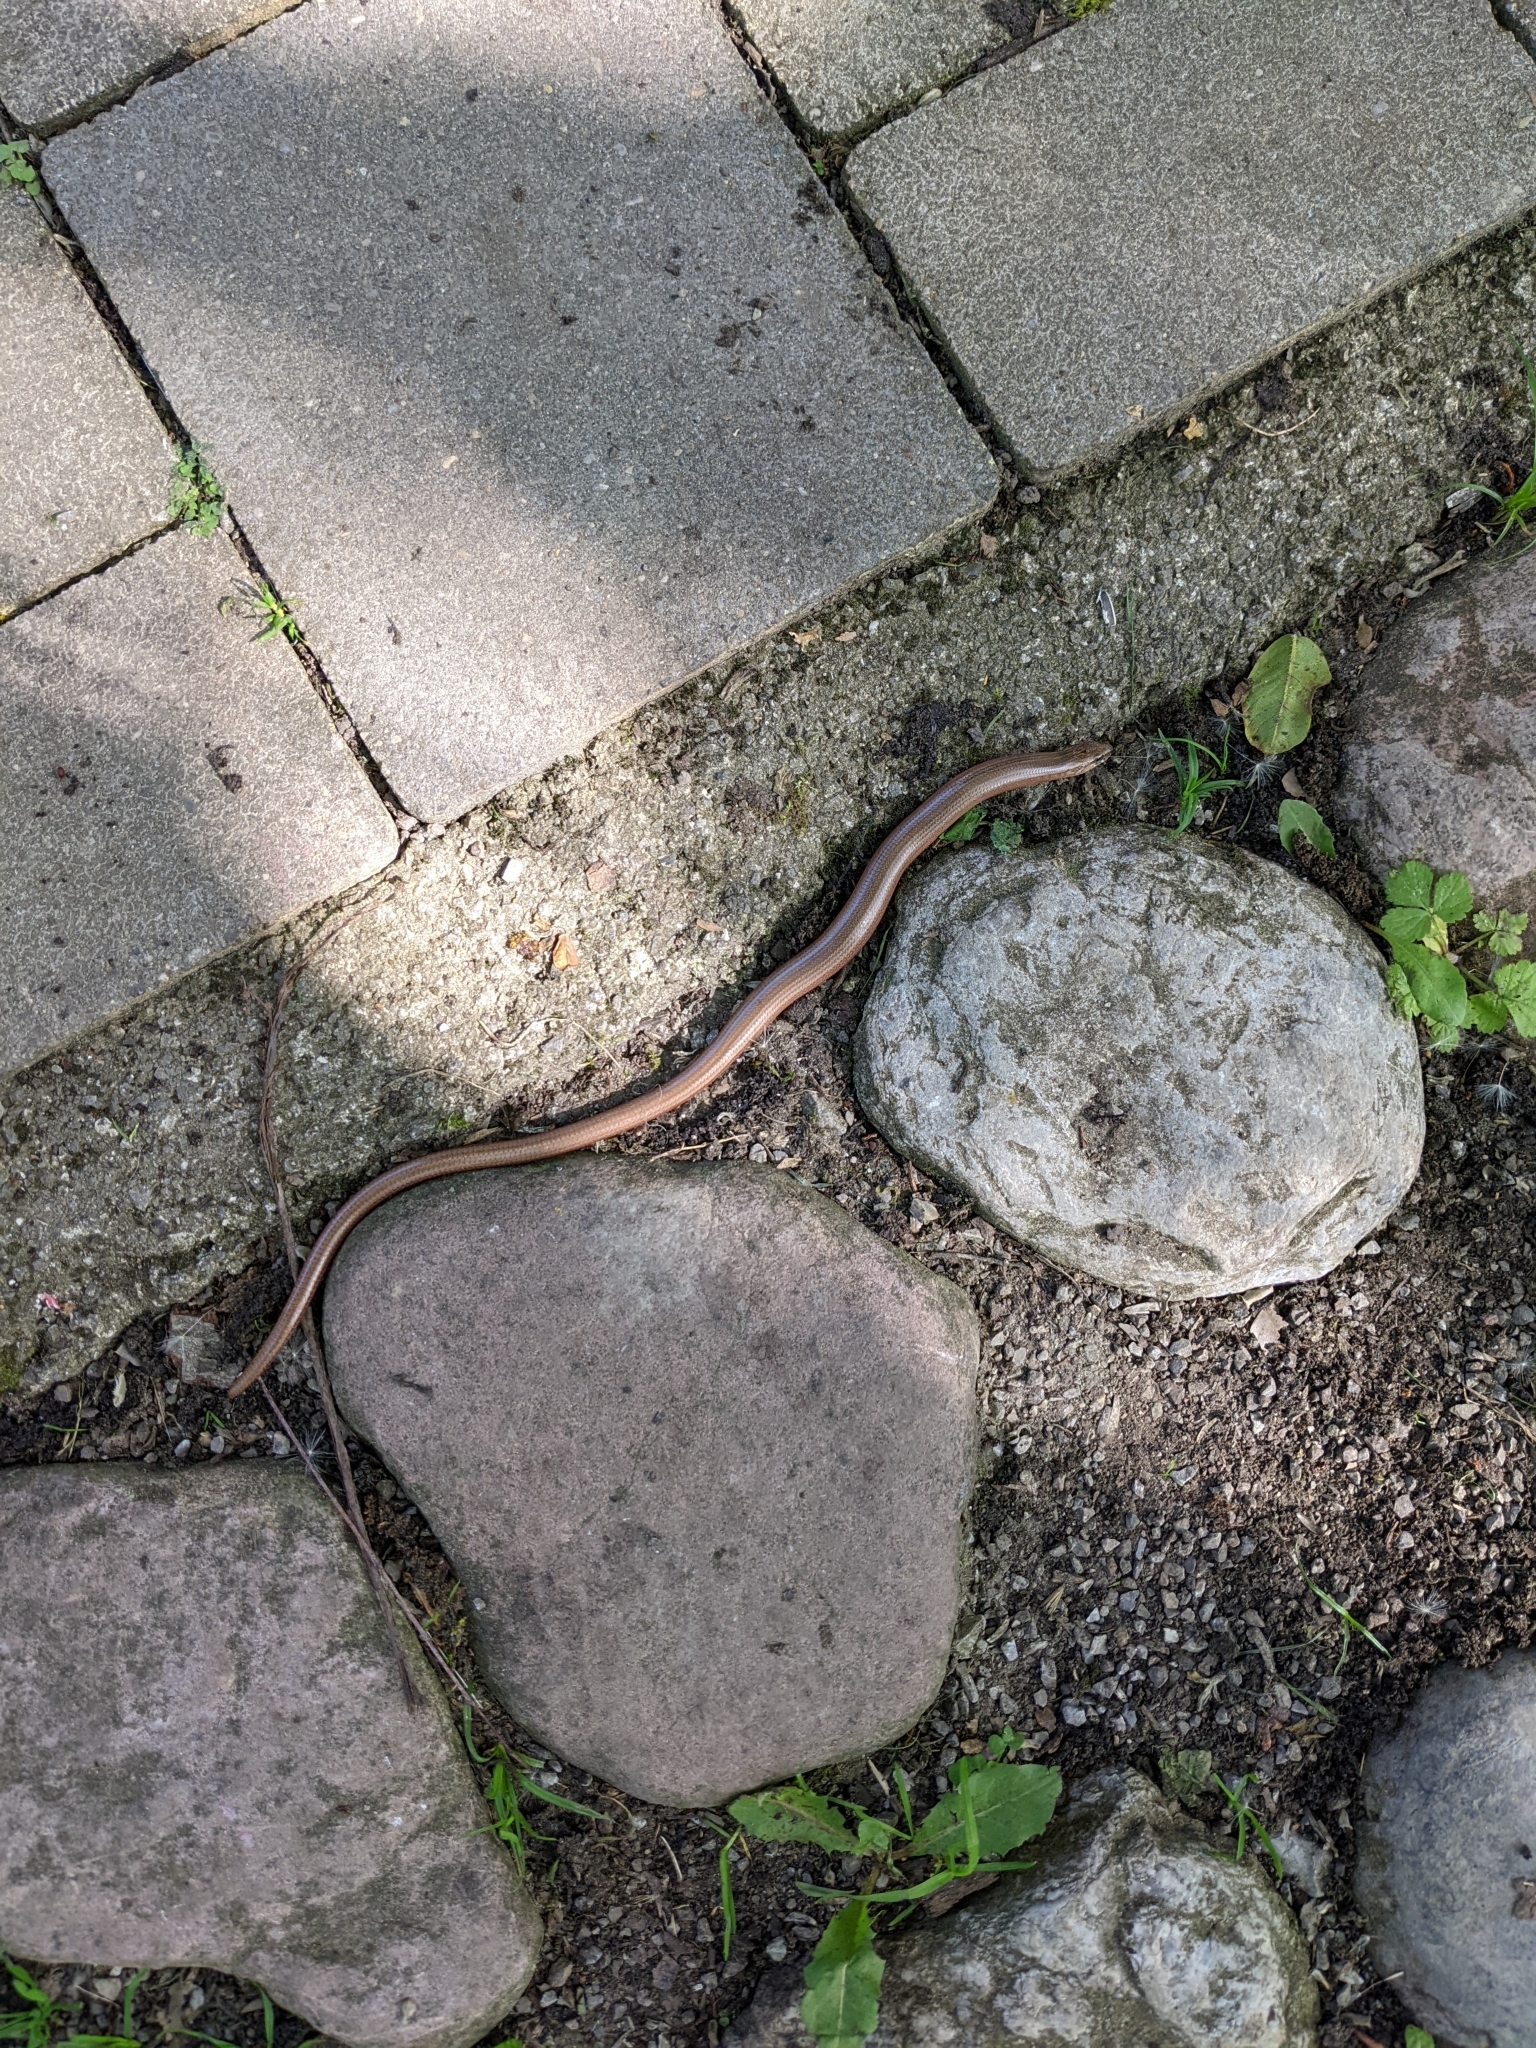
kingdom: Animalia
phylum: Chordata
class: Squamata
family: Anguidae
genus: Anguis
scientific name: Anguis fragilis
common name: Slow worm
